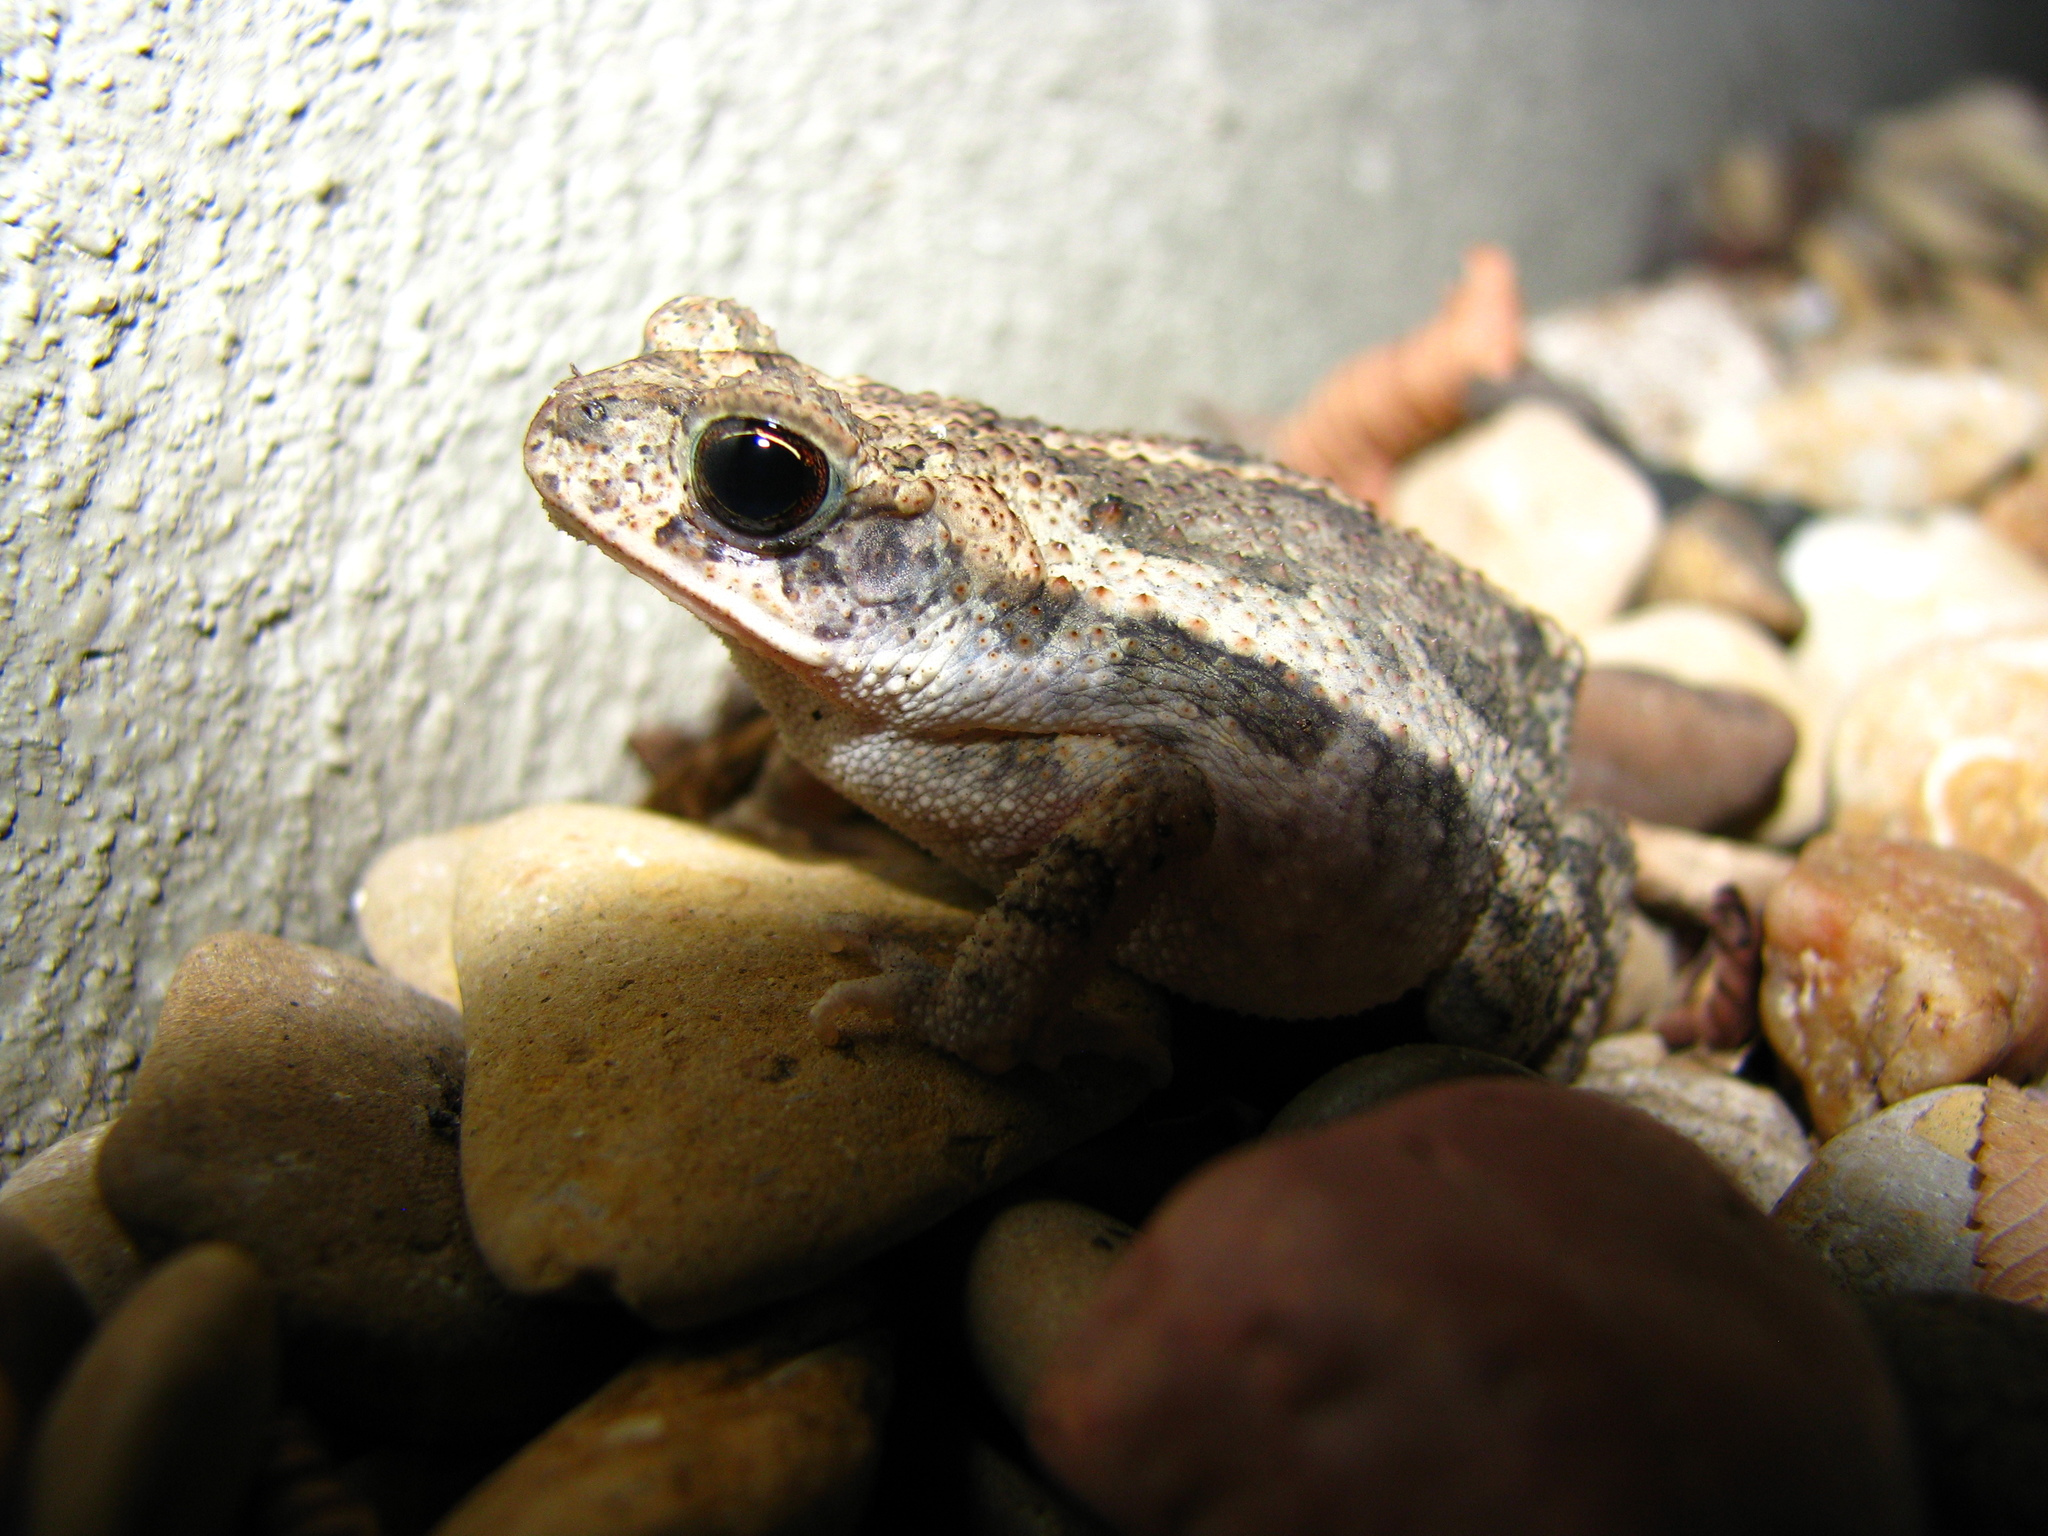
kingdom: Animalia
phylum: Chordata
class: Amphibia
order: Anura
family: Bufonidae
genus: Incilius
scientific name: Incilius nebulifer
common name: Gulf coast toad
